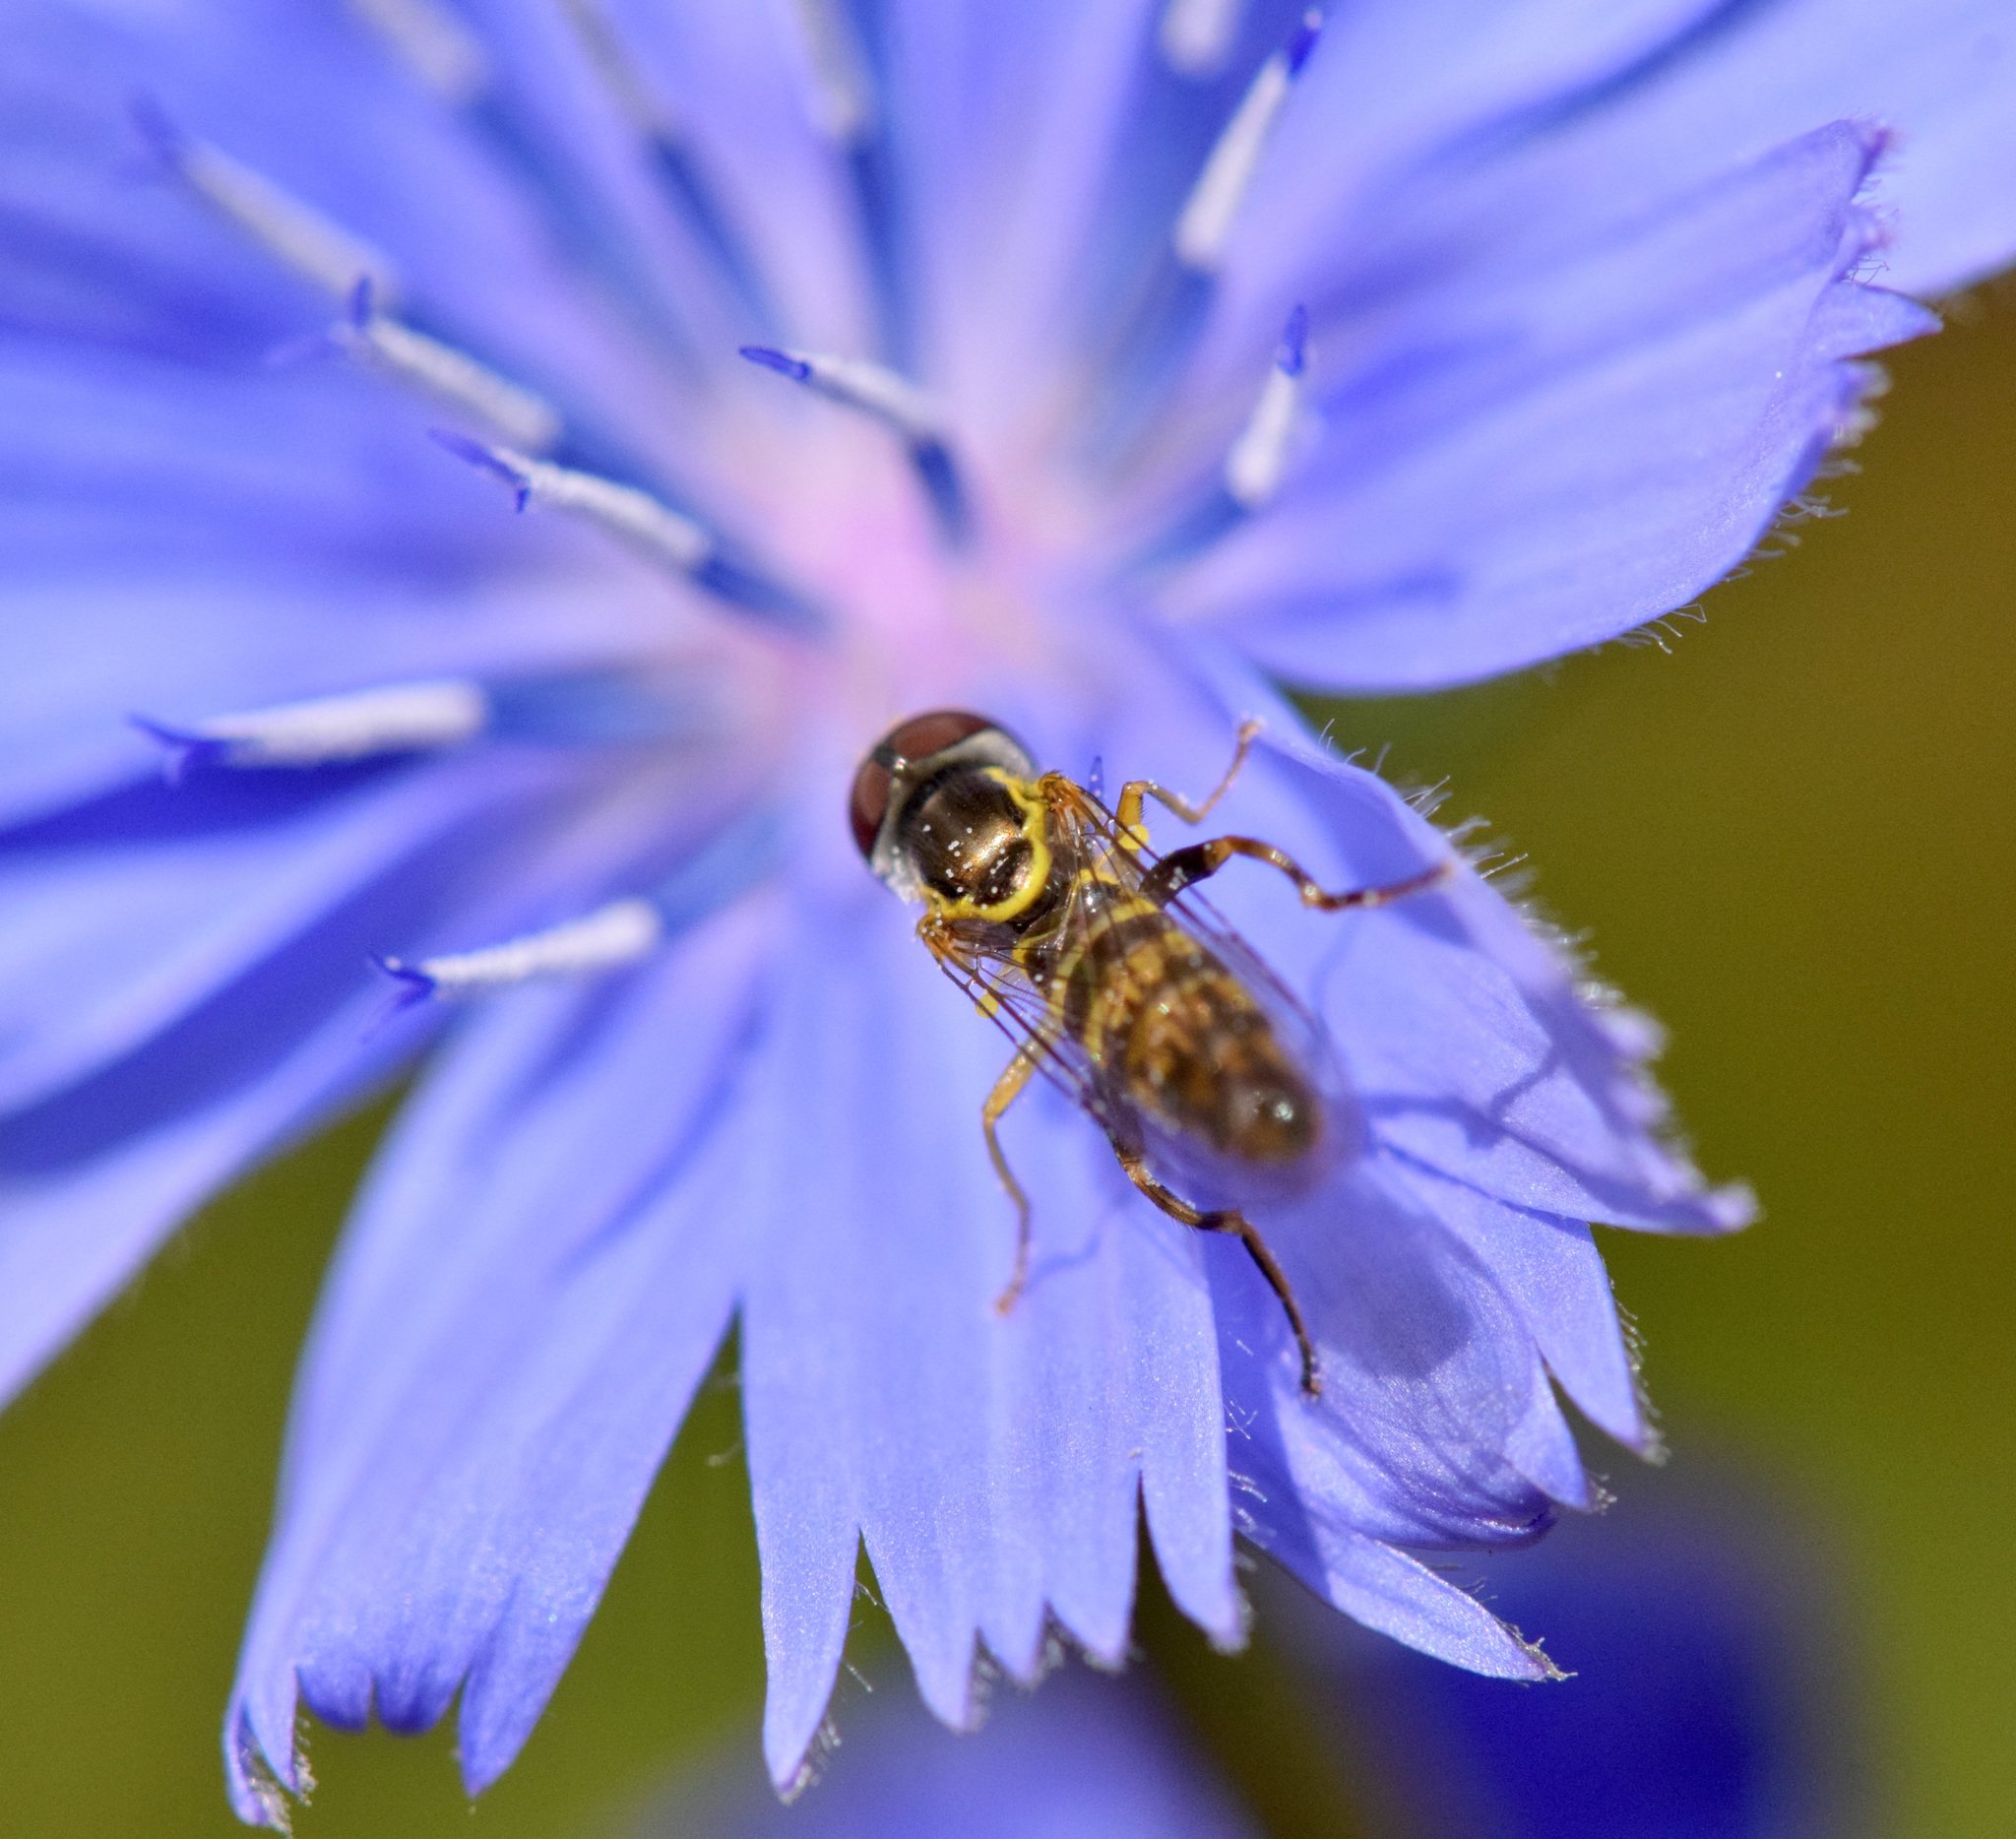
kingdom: Animalia
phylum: Arthropoda
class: Insecta
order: Diptera
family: Syrphidae
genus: Toxomerus
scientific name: Toxomerus geminatus
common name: Eastern calligrapher
